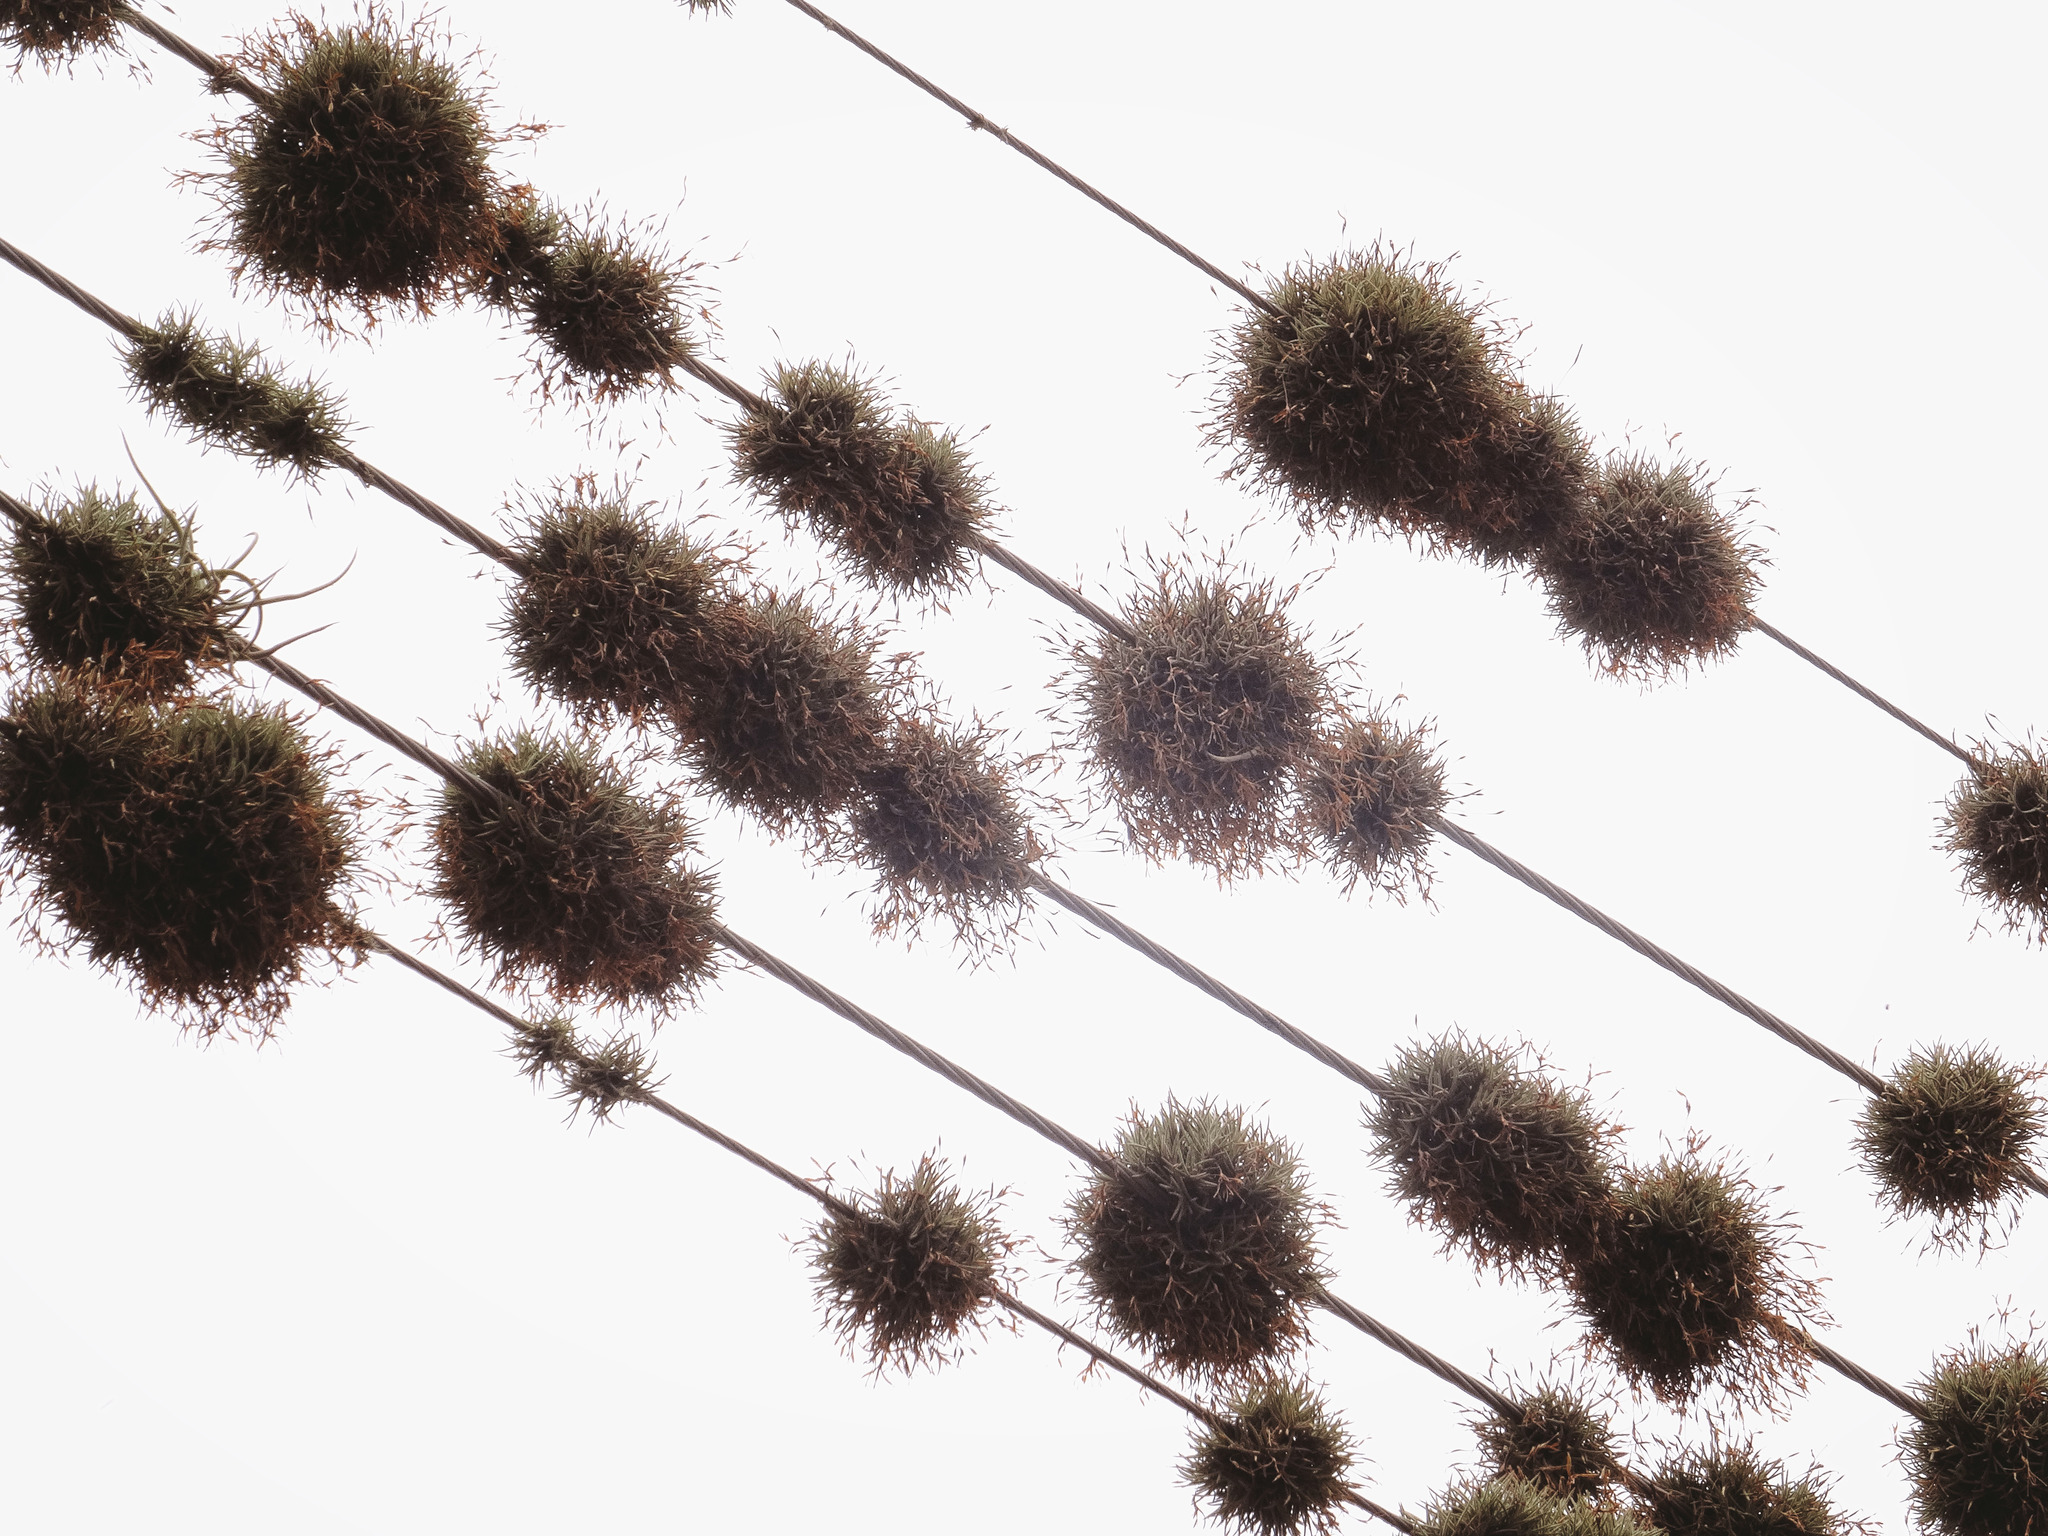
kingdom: Plantae
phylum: Tracheophyta
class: Liliopsida
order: Poales
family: Bromeliaceae
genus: Tillandsia
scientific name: Tillandsia recurvata
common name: Small ballmoss
